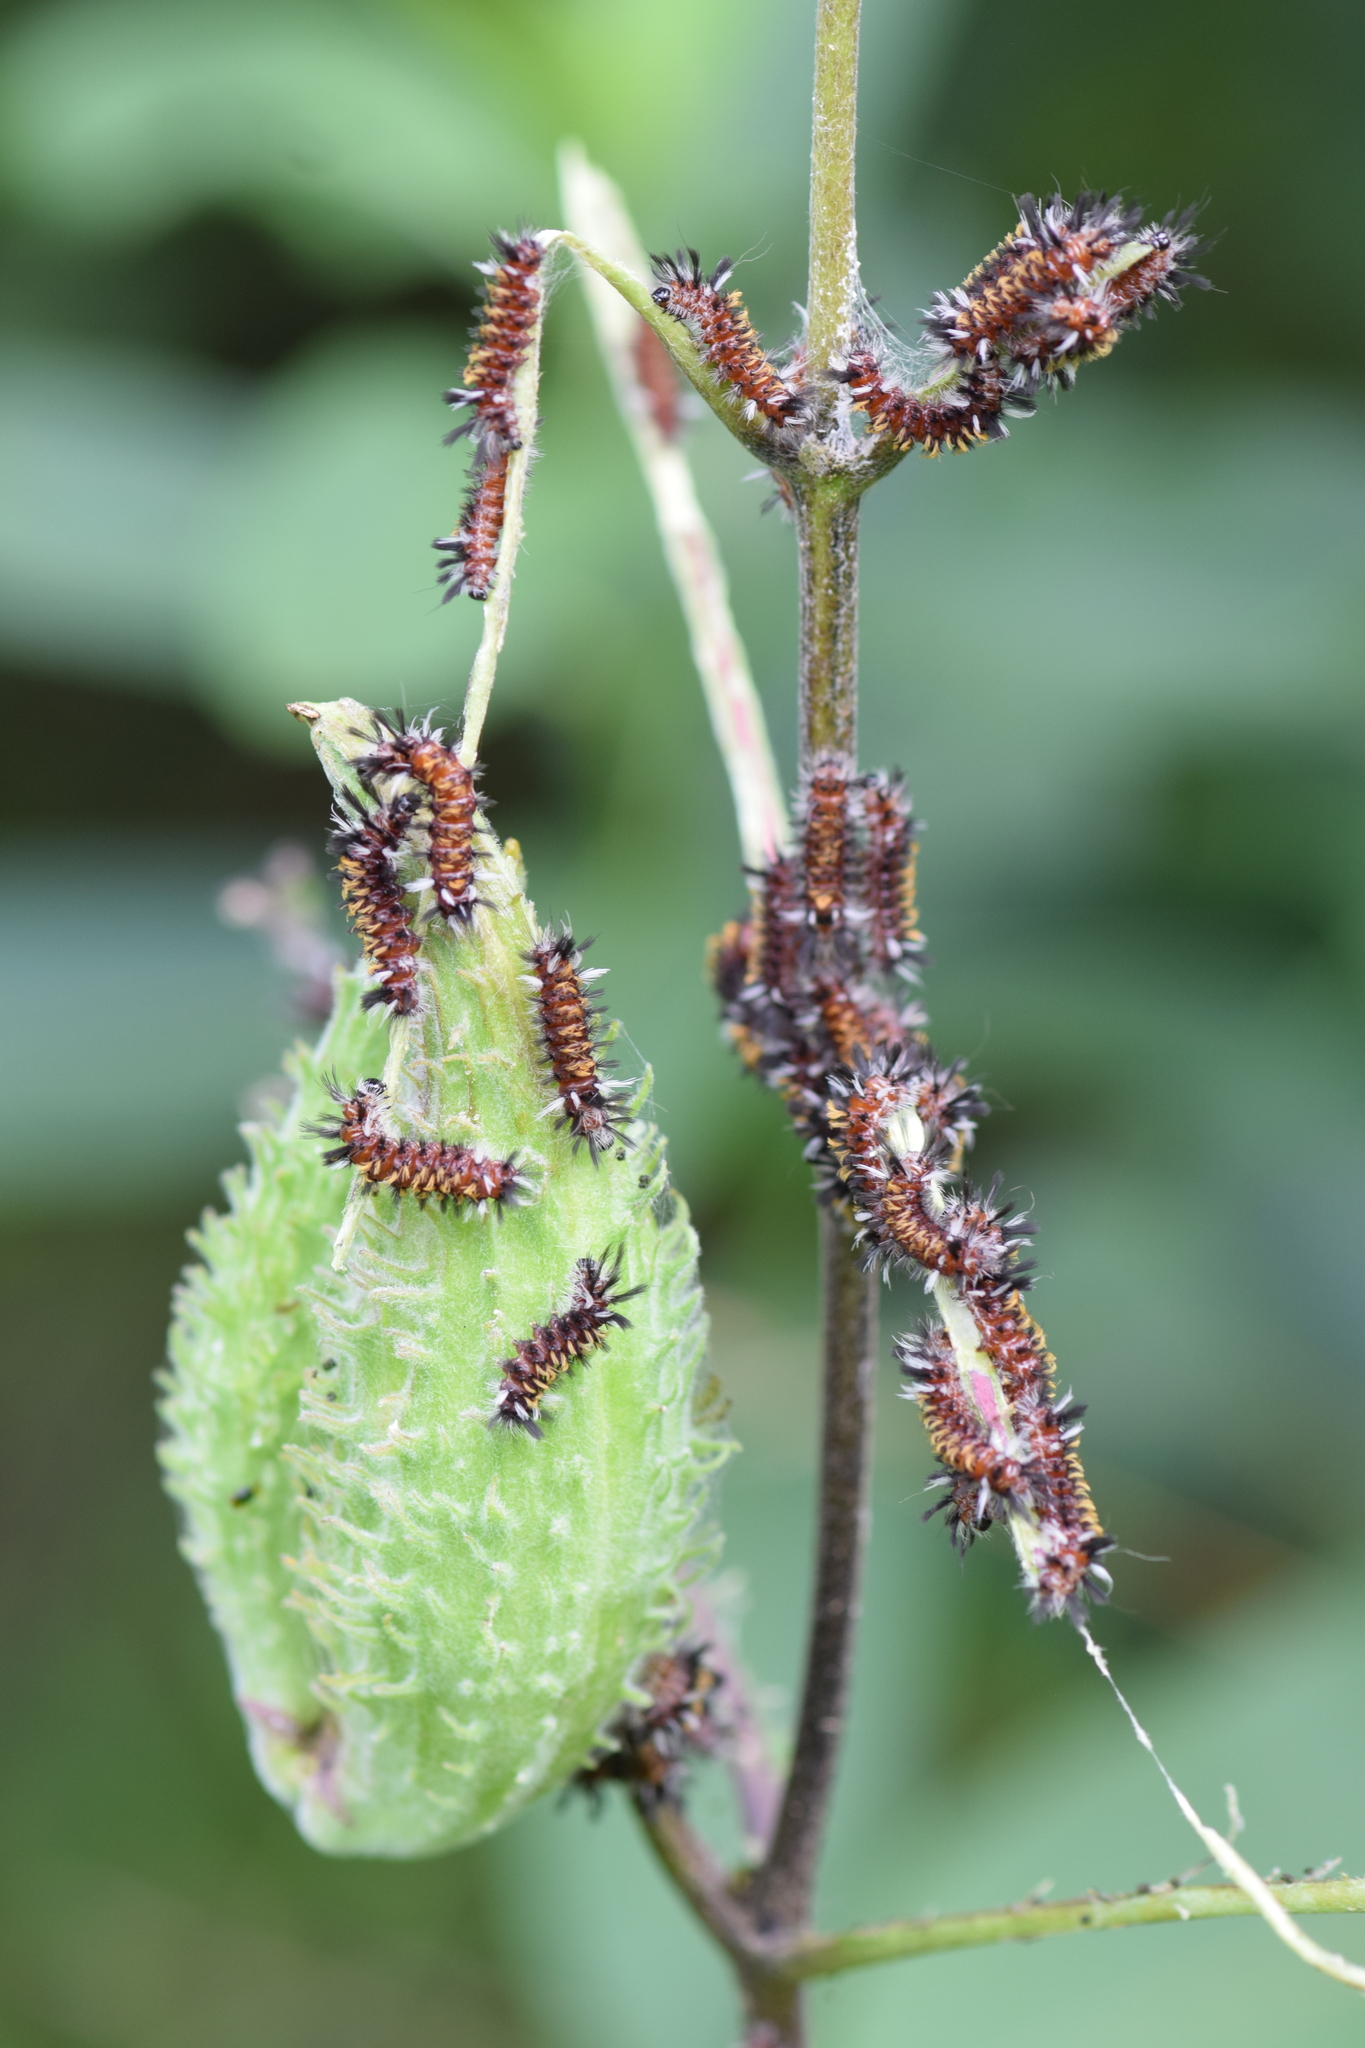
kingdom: Animalia
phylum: Arthropoda
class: Insecta
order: Lepidoptera
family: Erebidae
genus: Euchaetes
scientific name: Euchaetes egle
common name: Milkweed tussock moth
